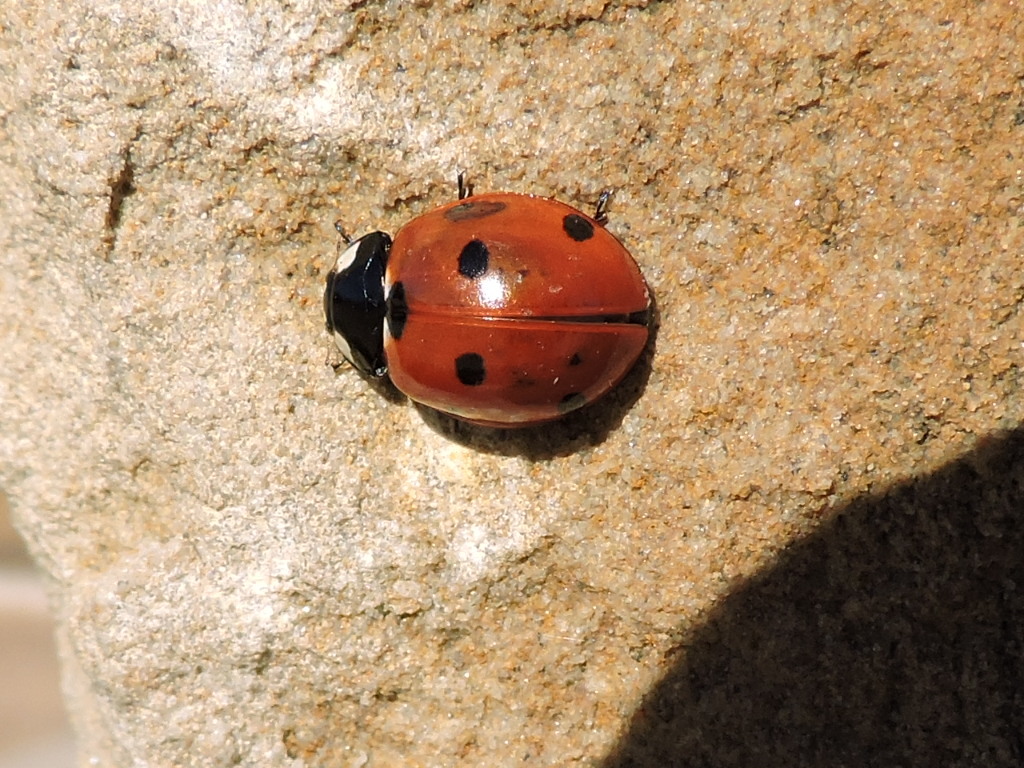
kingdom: Animalia
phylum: Arthropoda
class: Insecta
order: Coleoptera
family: Coccinellidae
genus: Coccinella
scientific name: Coccinella septempunctata
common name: Sevenspotted lady beetle
